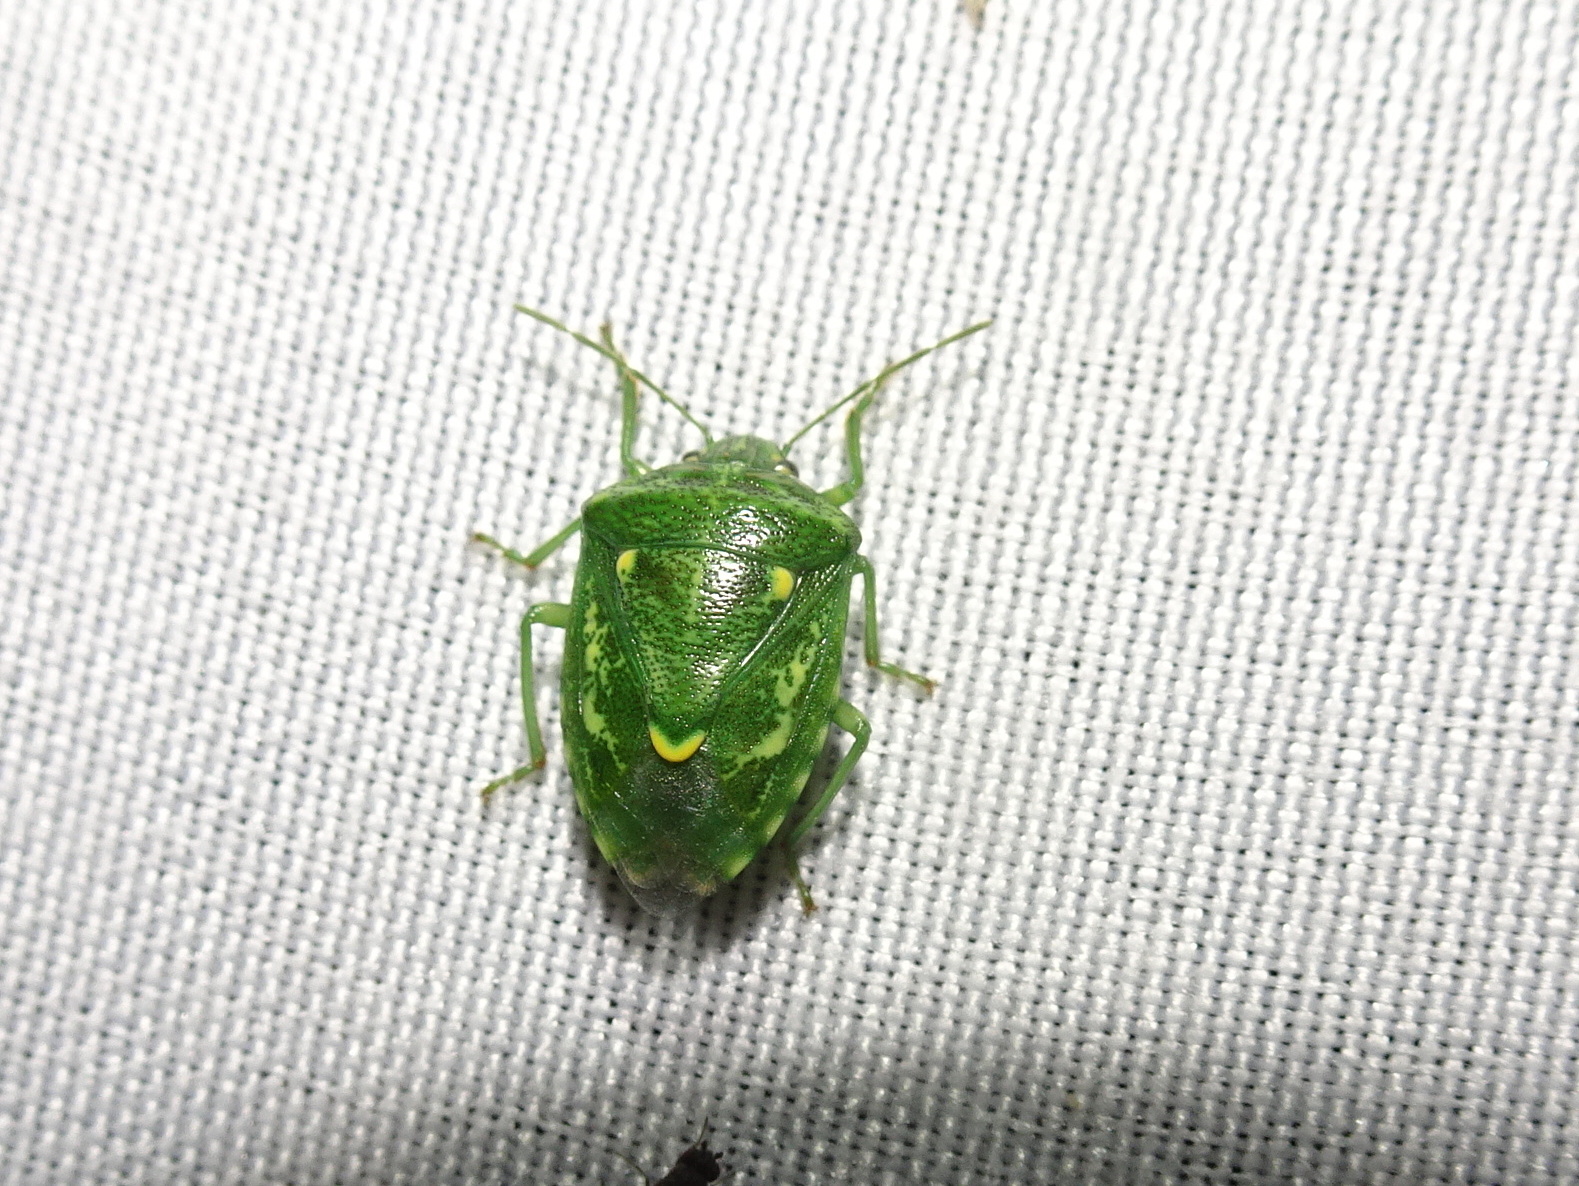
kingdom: Animalia
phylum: Arthropoda
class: Insecta
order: Hemiptera
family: Pentatomidae
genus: Banasa
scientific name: Banasa euchlora
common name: Cedar berry bug
